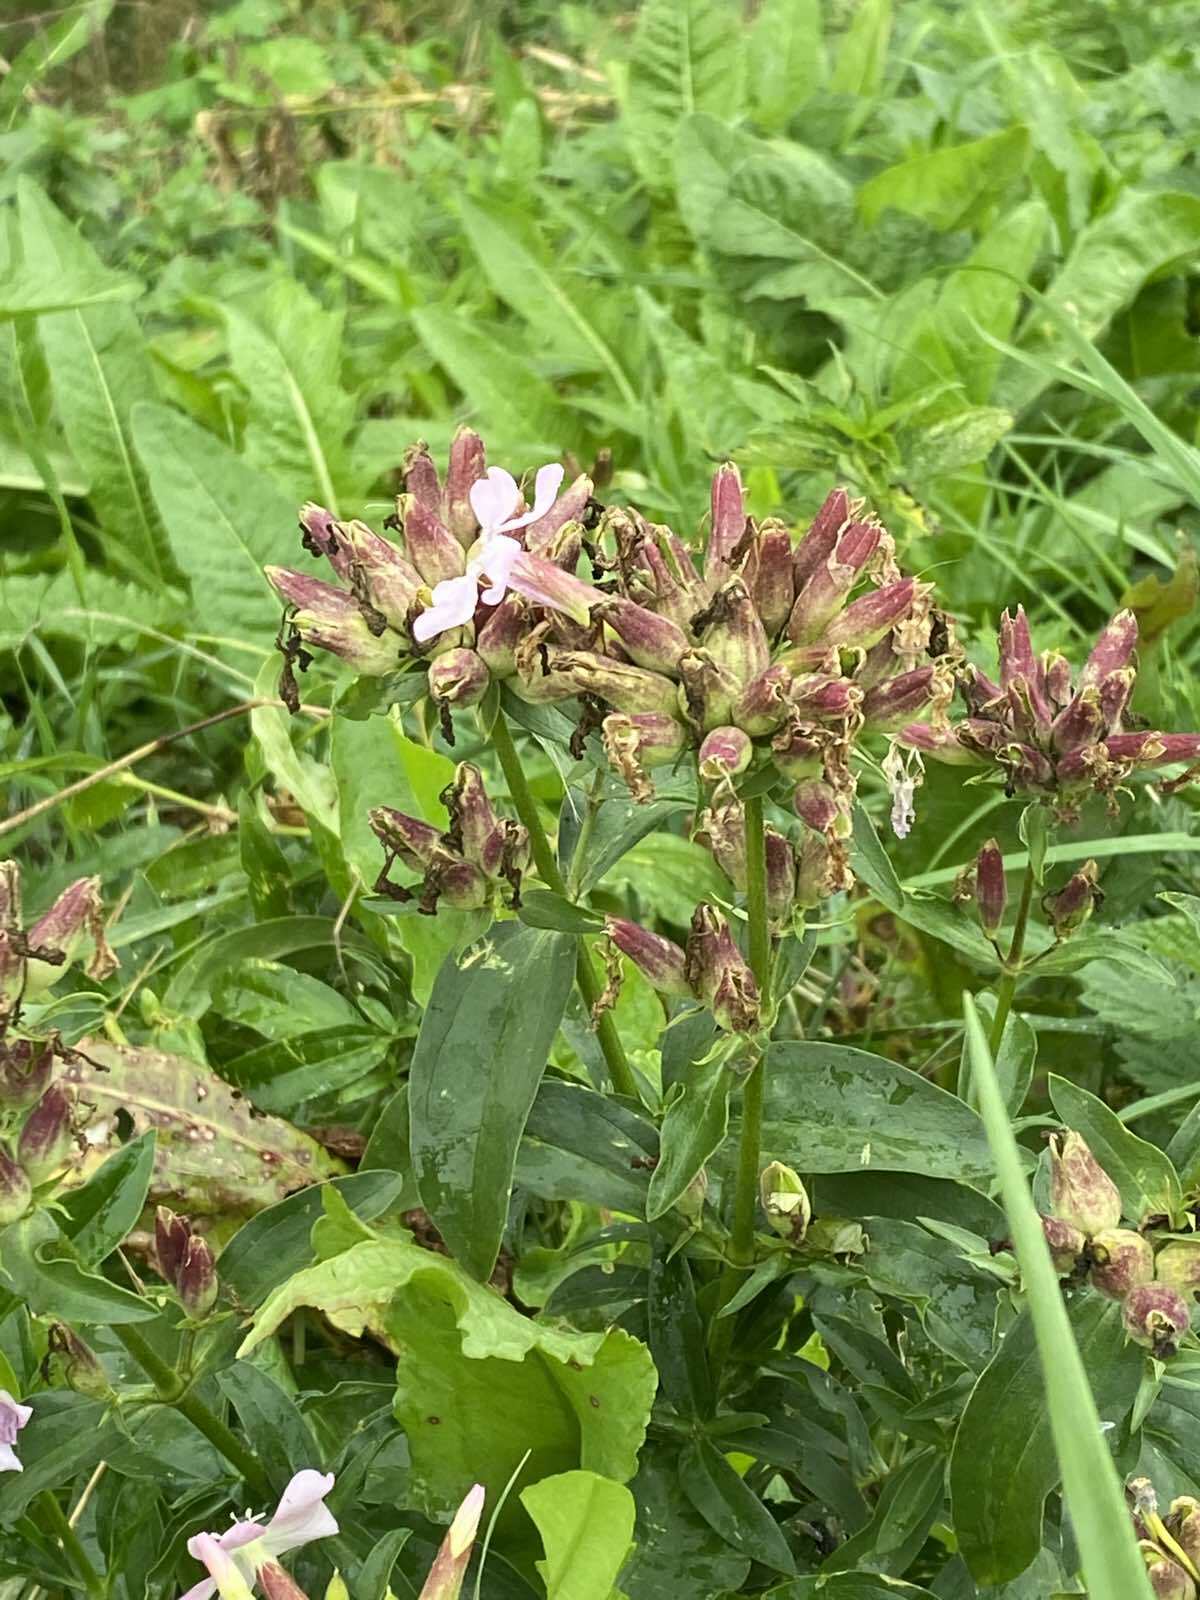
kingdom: Plantae
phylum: Tracheophyta
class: Magnoliopsida
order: Caryophyllales
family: Caryophyllaceae
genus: Saponaria
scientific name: Saponaria officinalis
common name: Soapwort
